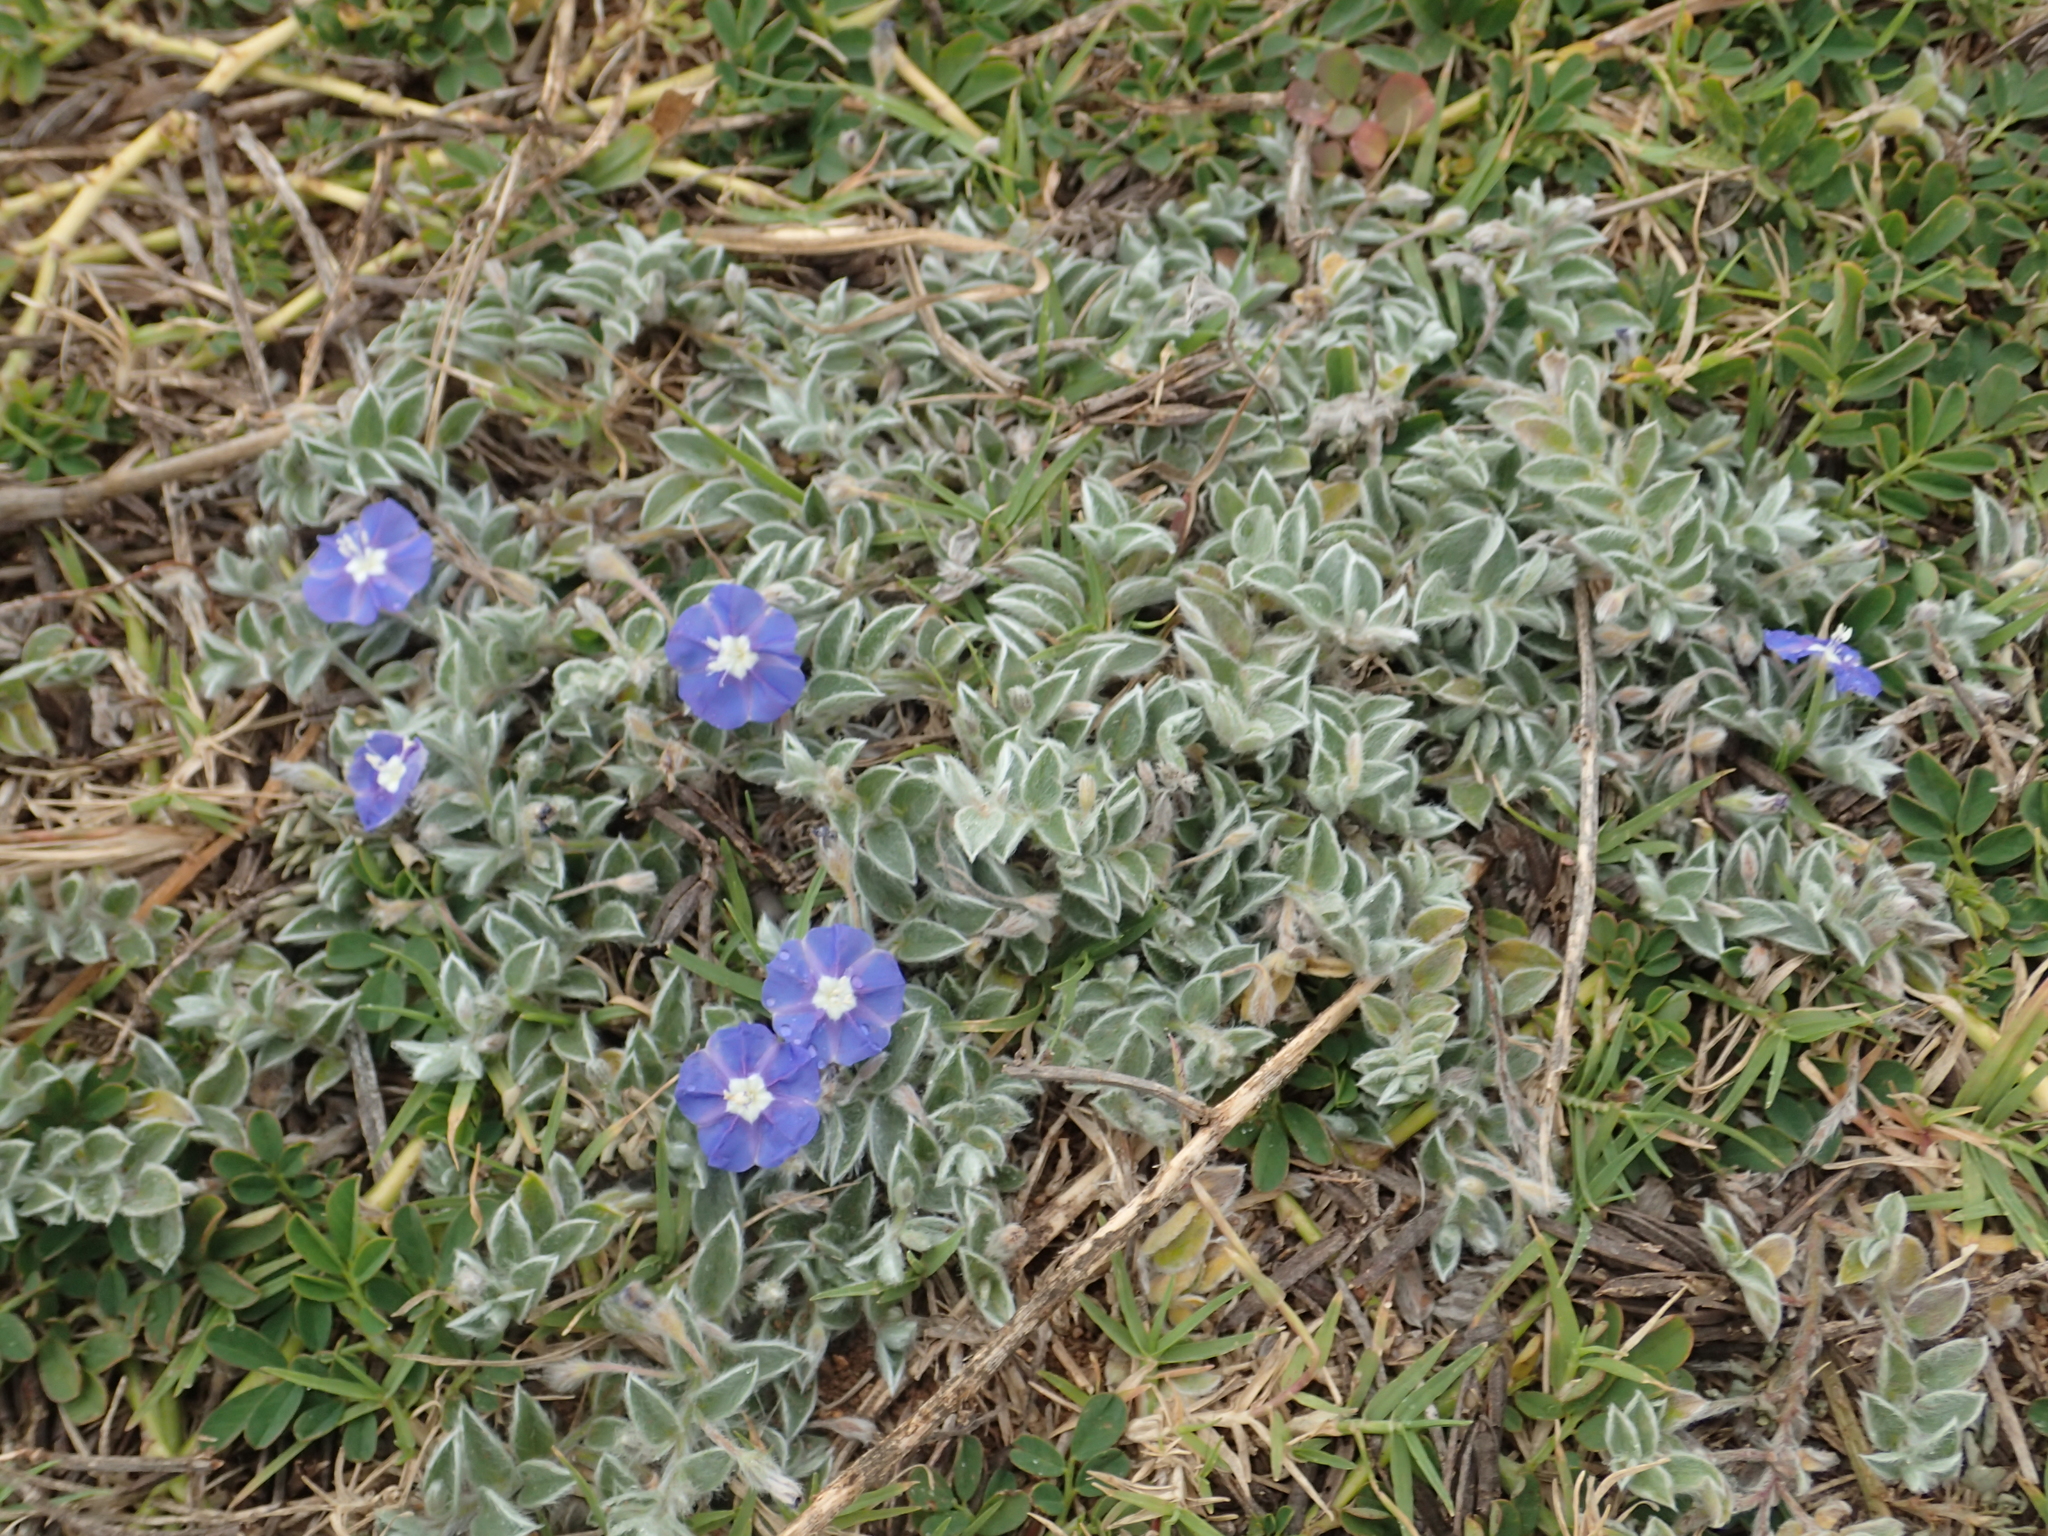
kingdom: Plantae
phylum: Tracheophyta
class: Magnoliopsida
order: Solanales
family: Convolvulaceae
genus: Evolvulus
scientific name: Evolvulus alsinoides
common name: Slender dwarf morning-glory
